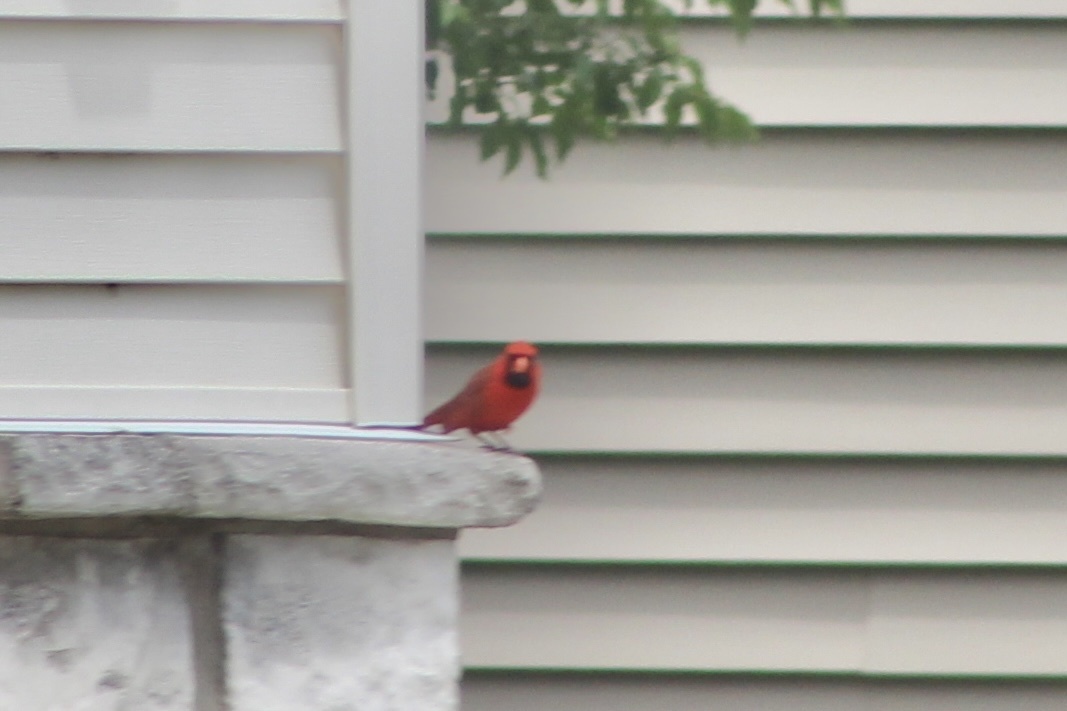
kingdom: Animalia
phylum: Chordata
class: Aves
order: Passeriformes
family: Cardinalidae
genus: Cardinalis
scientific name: Cardinalis cardinalis
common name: Northern cardinal
